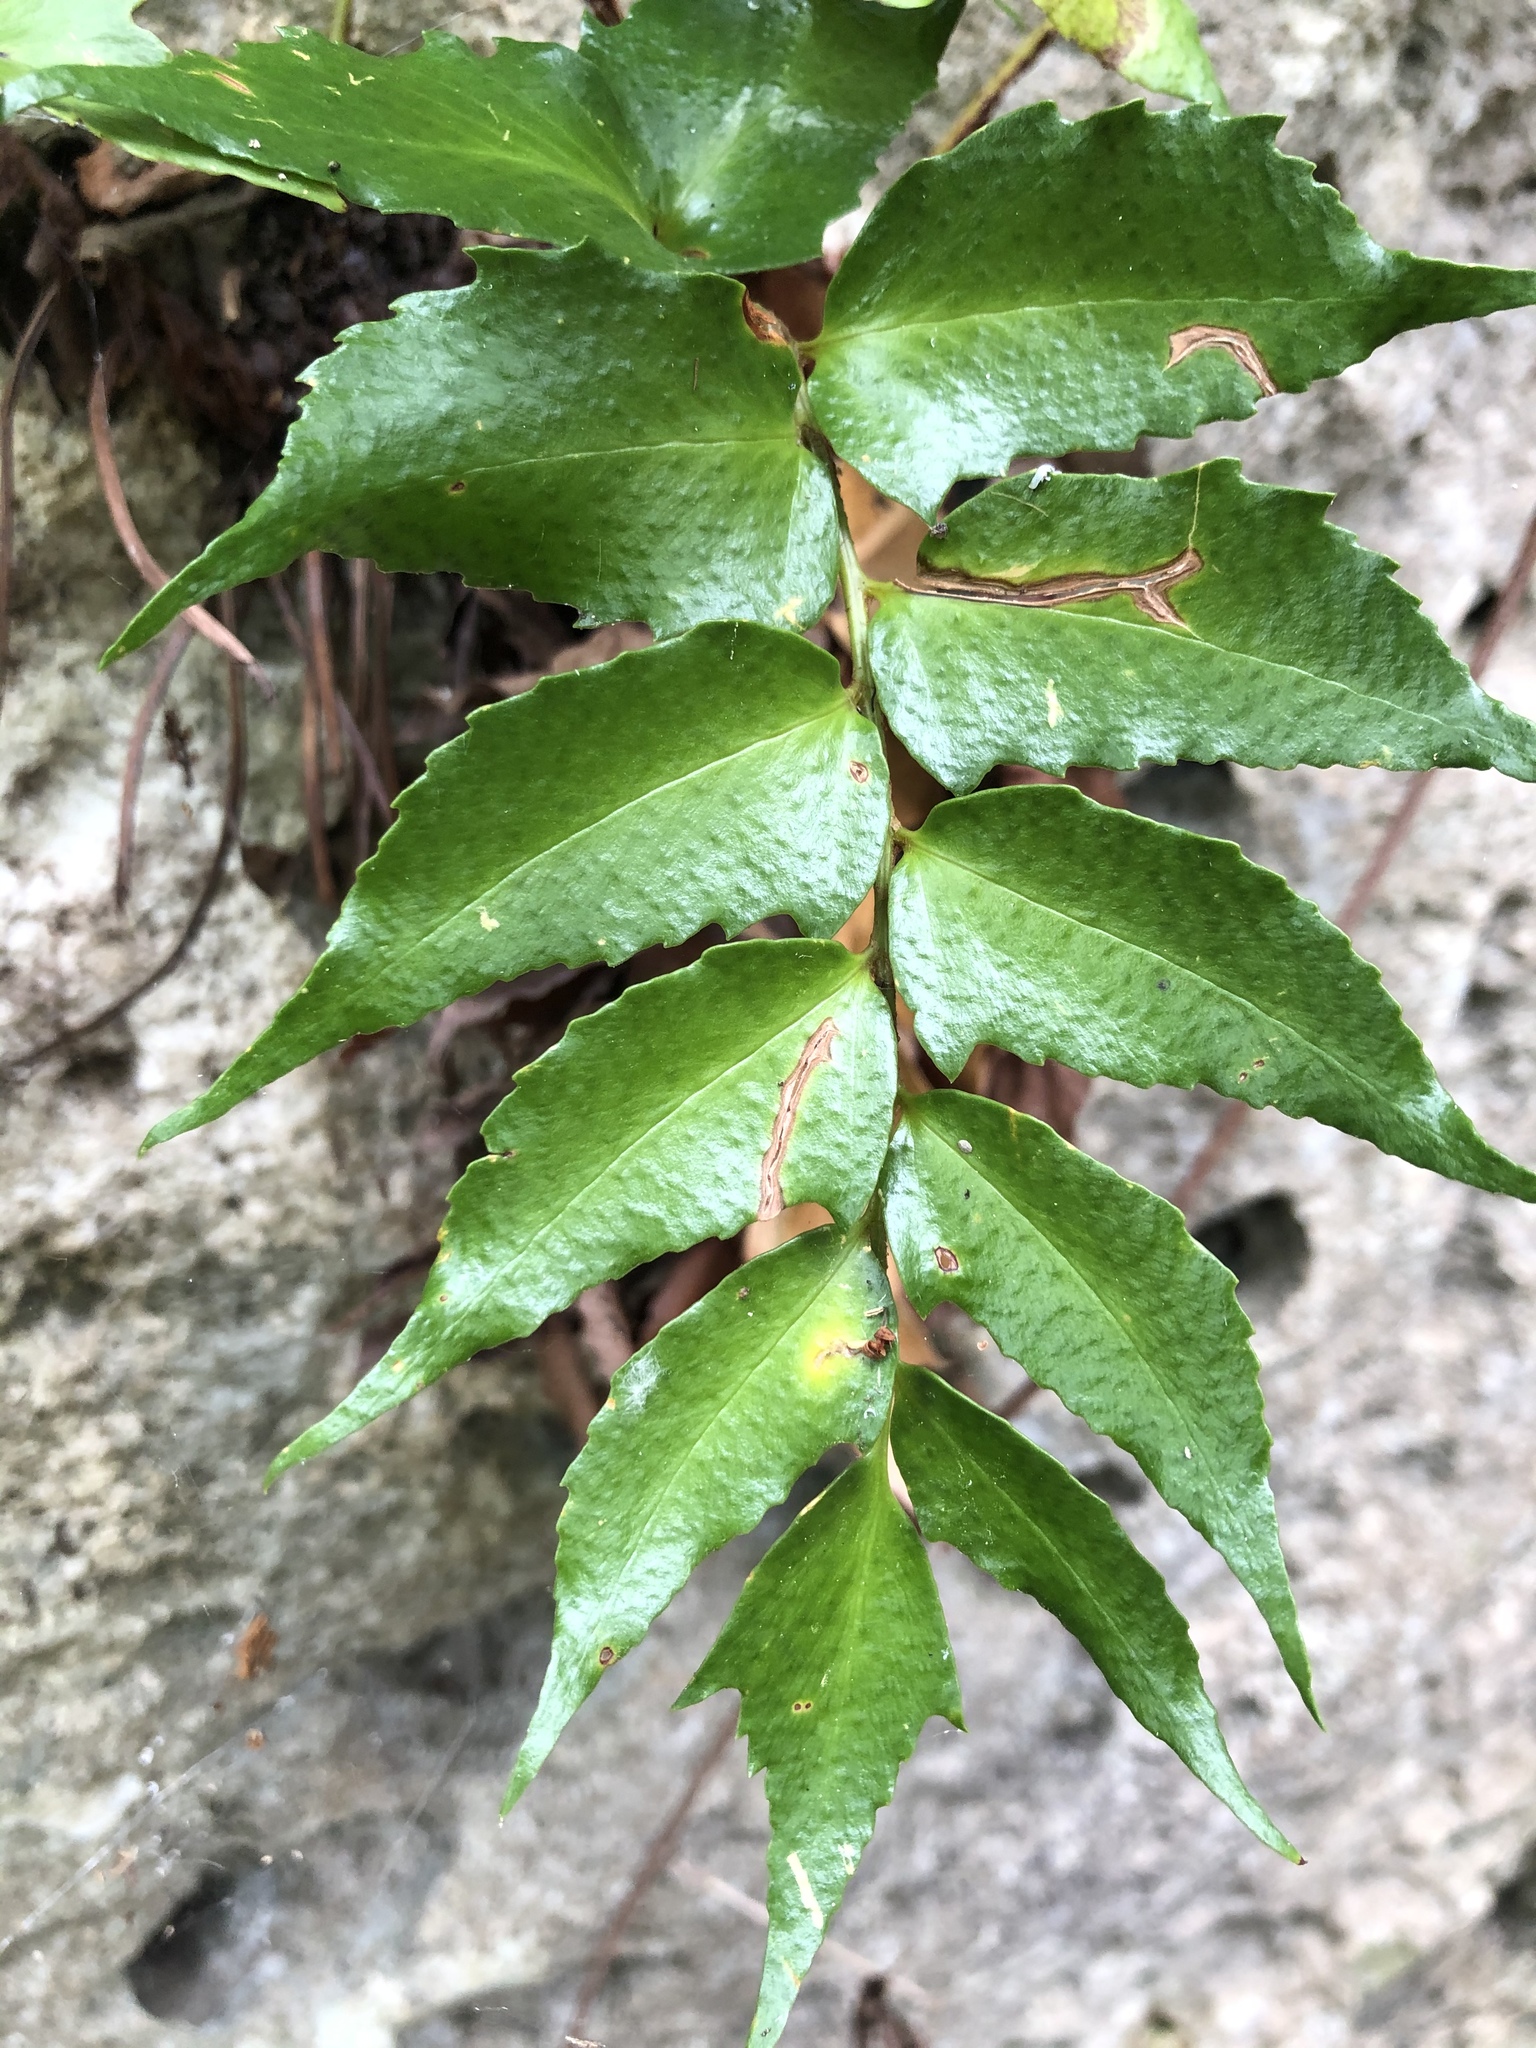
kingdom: Plantae
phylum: Tracheophyta
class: Polypodiopsida
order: Polypodiales
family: Dryopteridaceae
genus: Cyrtomium
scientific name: Cyrtomium falcatum
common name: House holly-fern
